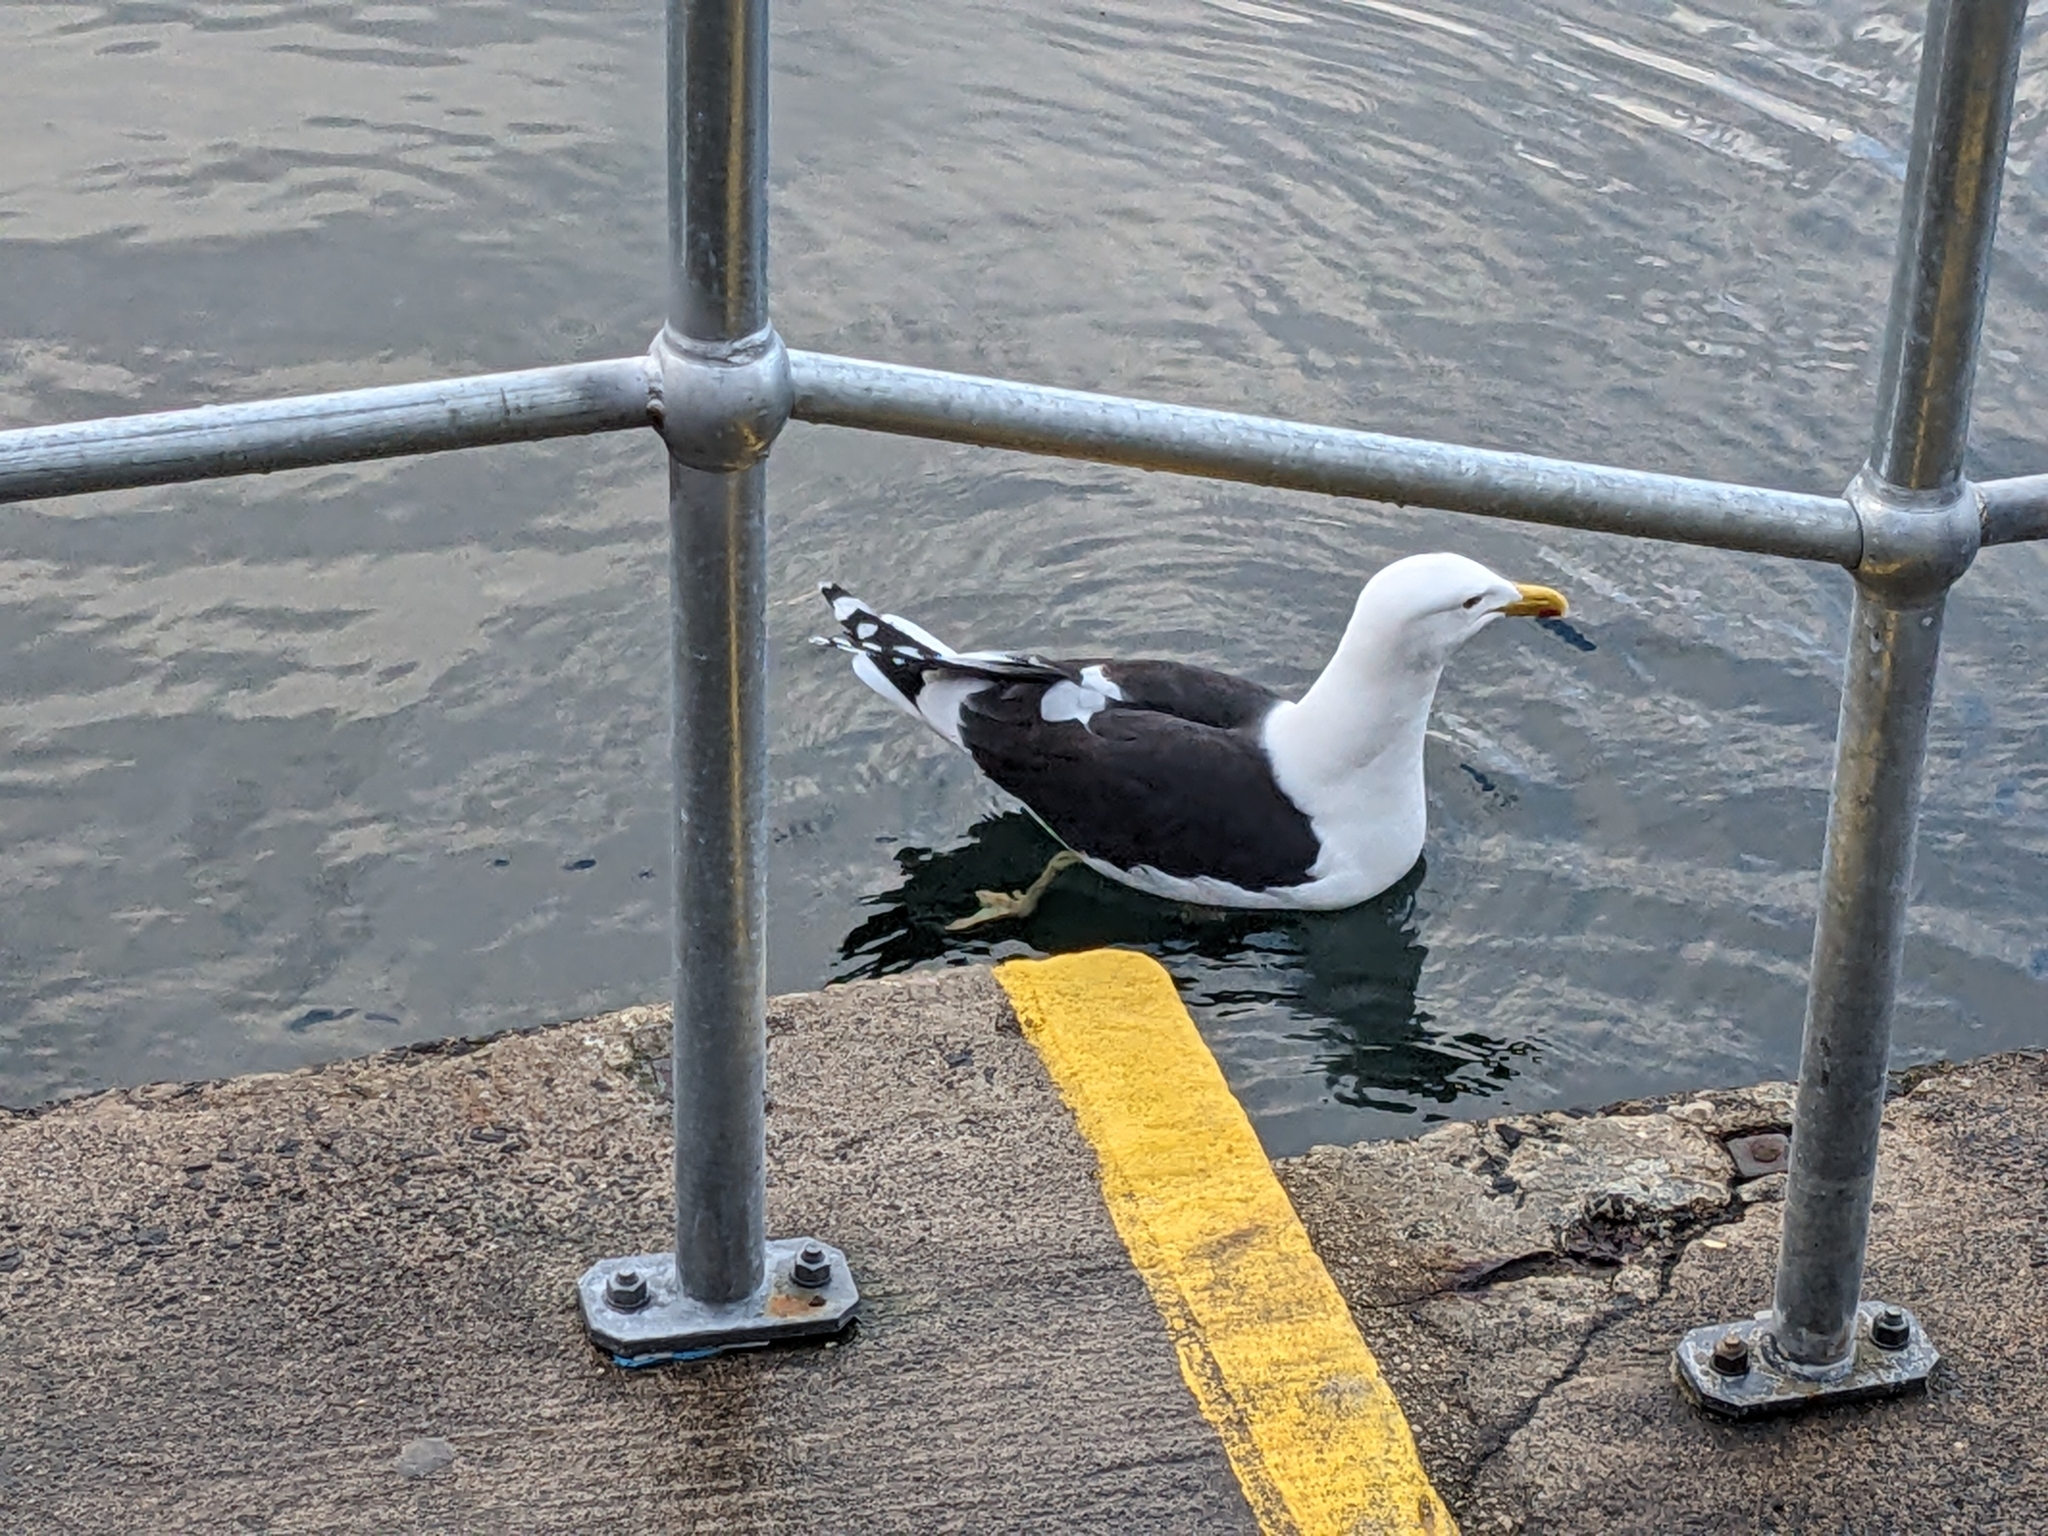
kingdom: Animalia
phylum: Chordata
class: Aves
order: Charadriiformes
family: Laridae
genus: Larus
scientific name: Larus dominicanus
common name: Kelp gull
